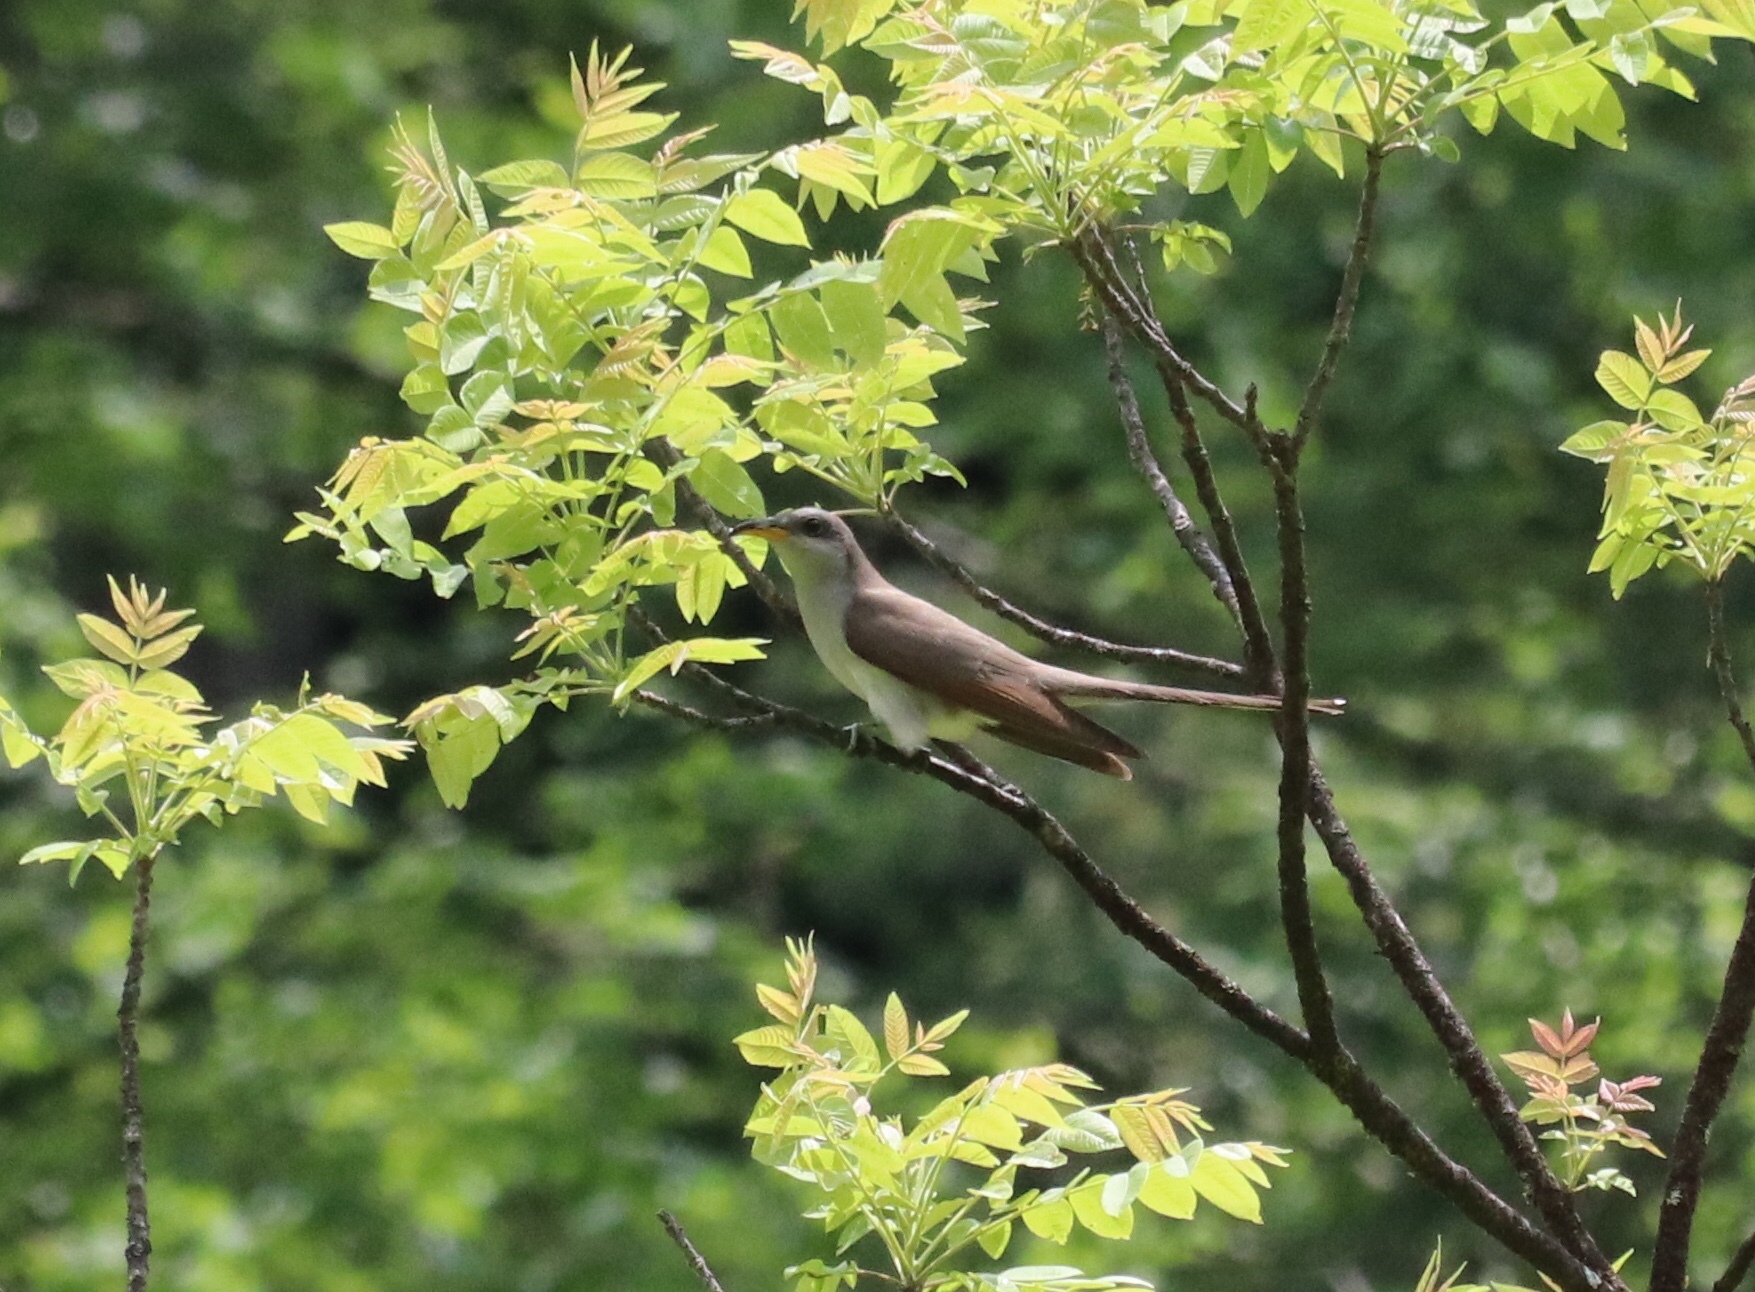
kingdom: Animalia
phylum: Chordata
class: Aves
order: Cuculiformes
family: Cuculidae
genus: Coccyzus
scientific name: Coccyzus americanus
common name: Yellow-billed cuckoo
